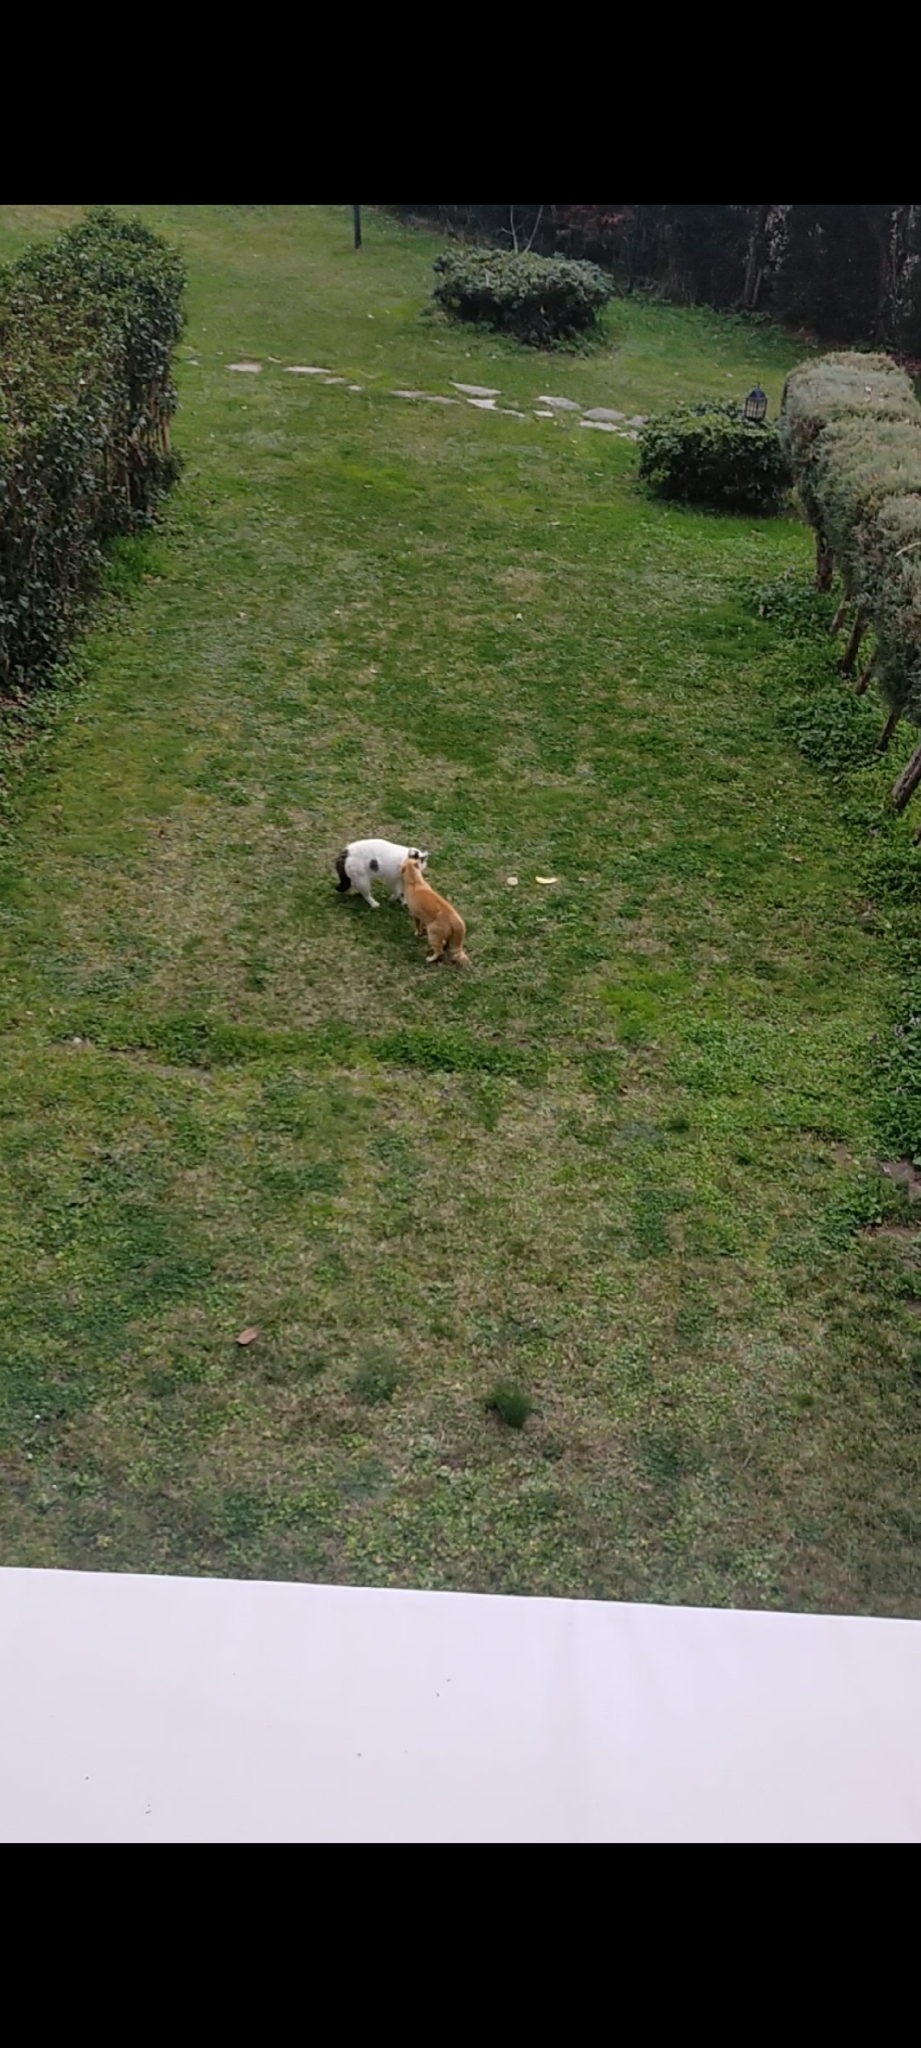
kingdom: Animalia
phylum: Chordata
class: Mammalia
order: Carnivora
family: Felidae
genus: Felis
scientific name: Felis catus
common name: Domestic cat
